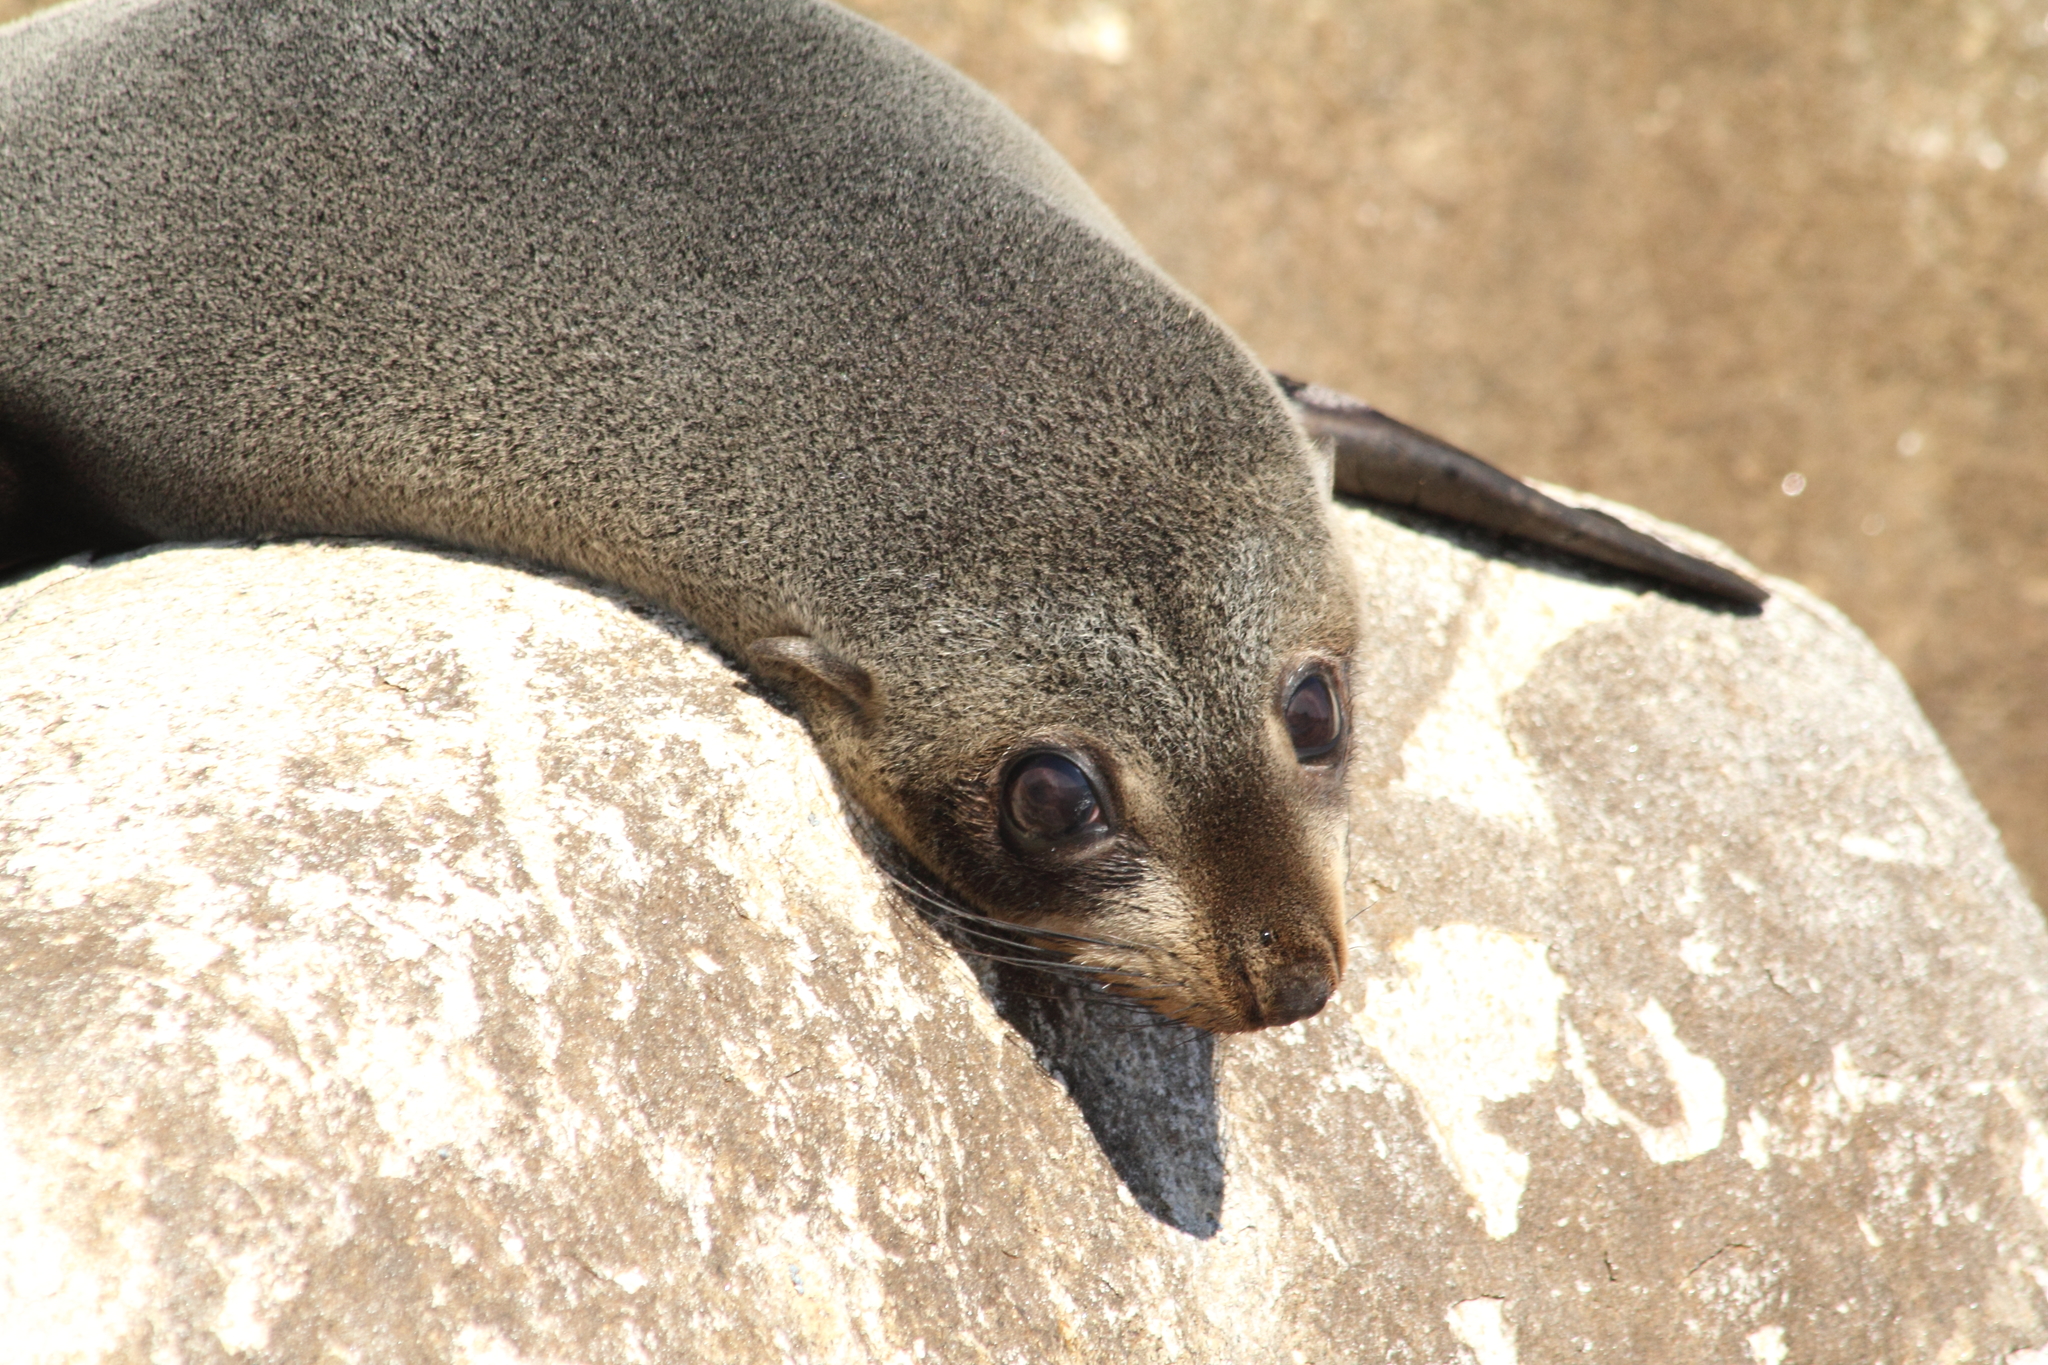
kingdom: Animalia
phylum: Chordata
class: Mammalia
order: Carnivora
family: Otariidae
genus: Arctocephalus
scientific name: Arctocephalus forsteri
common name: New zealand fur seal
